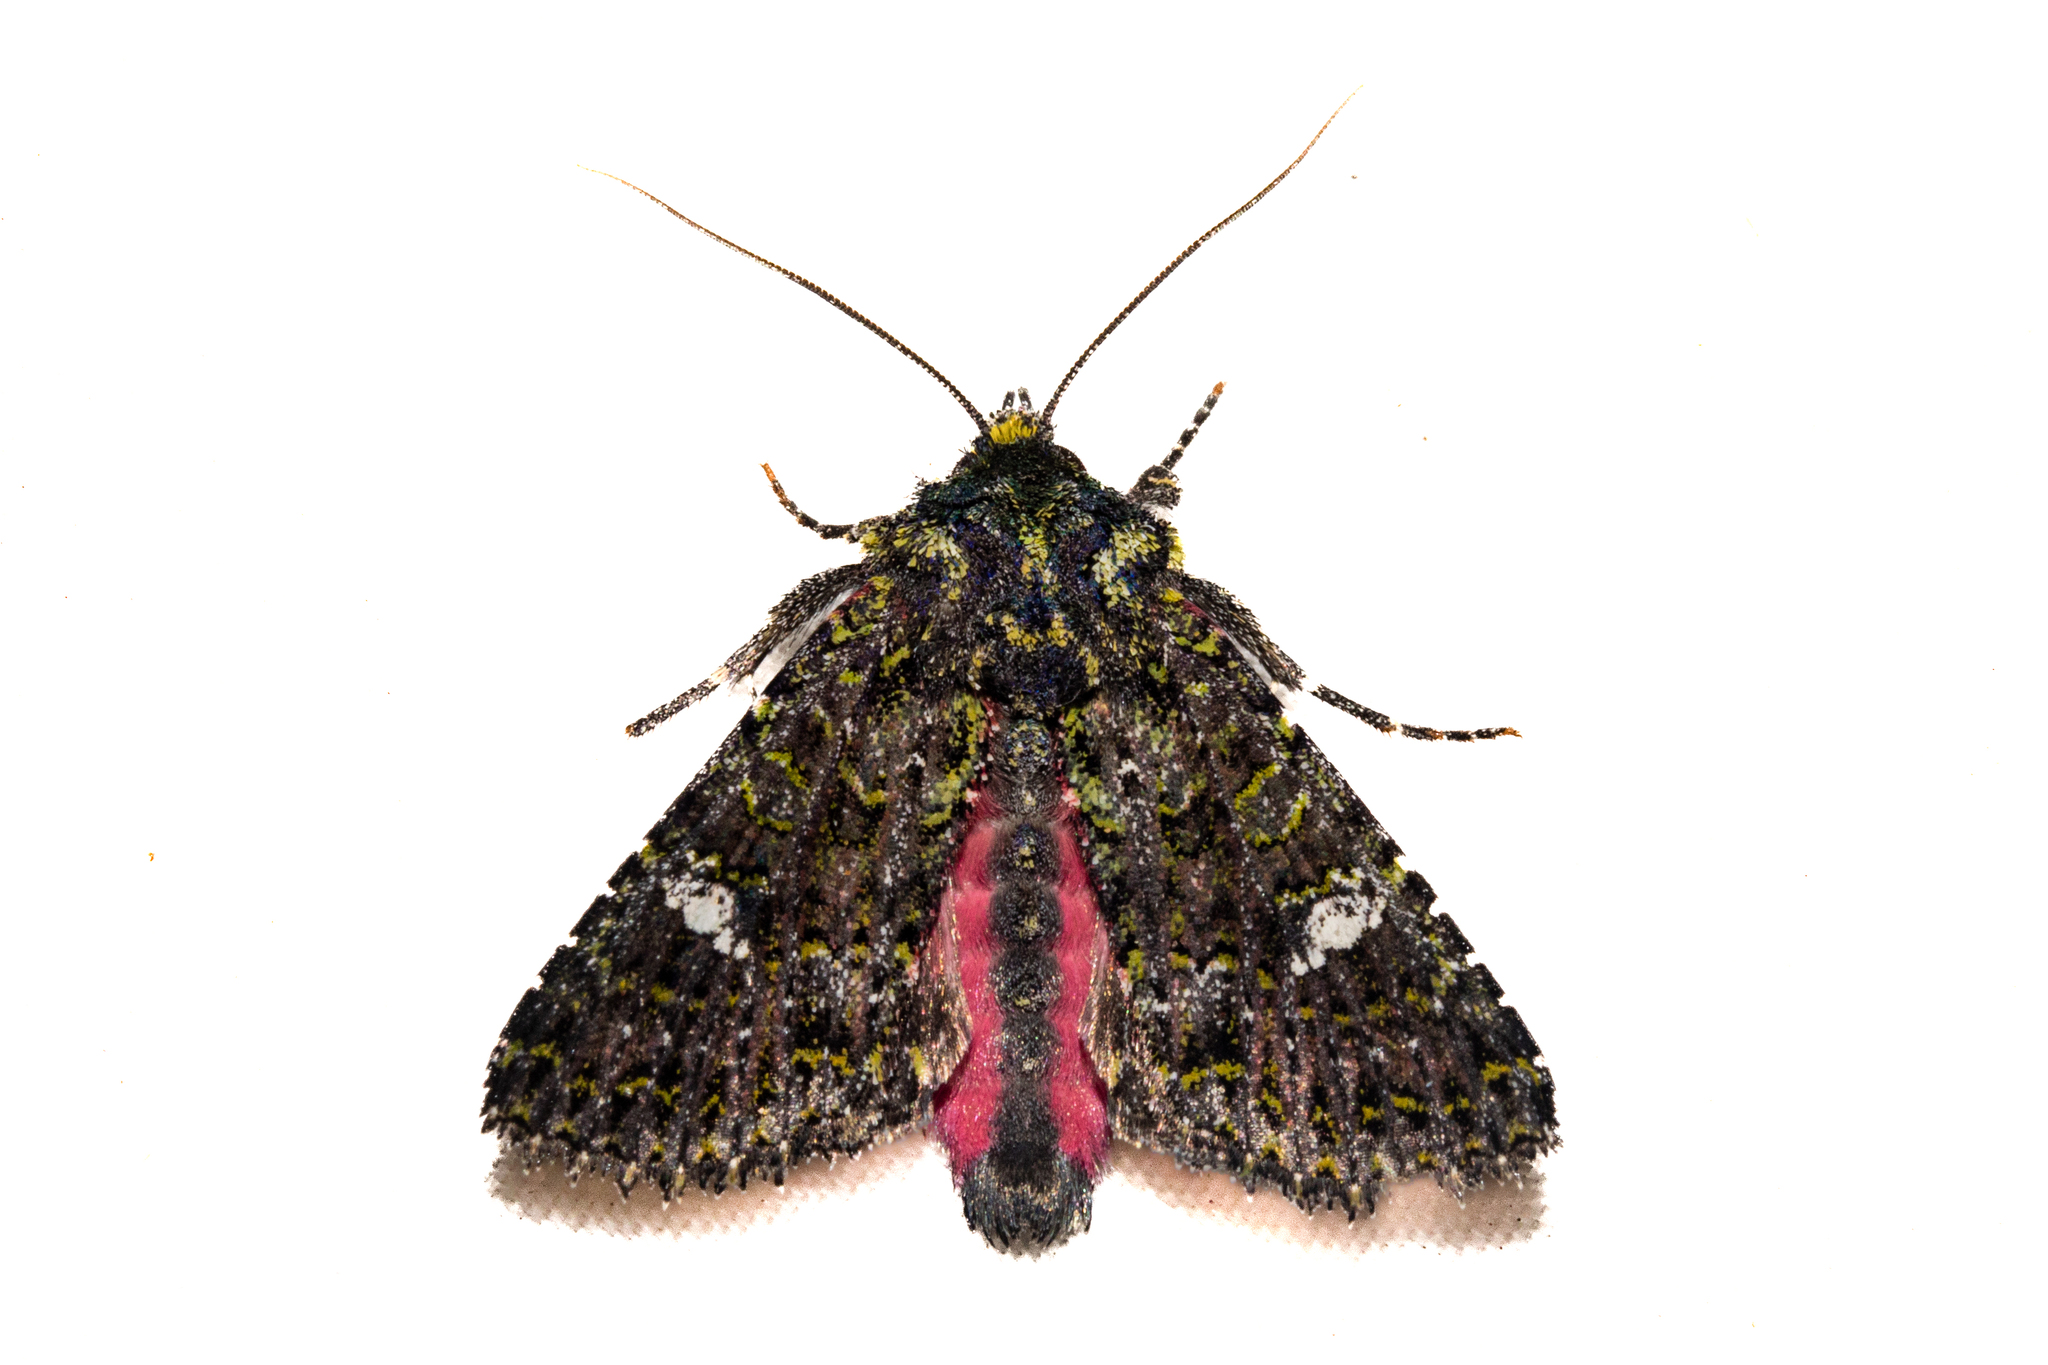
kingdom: Animalia
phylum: Arthropoda
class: Insecta
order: Lepidoptera
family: Noctuidae
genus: Meterana
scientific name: Meterana meyricci
